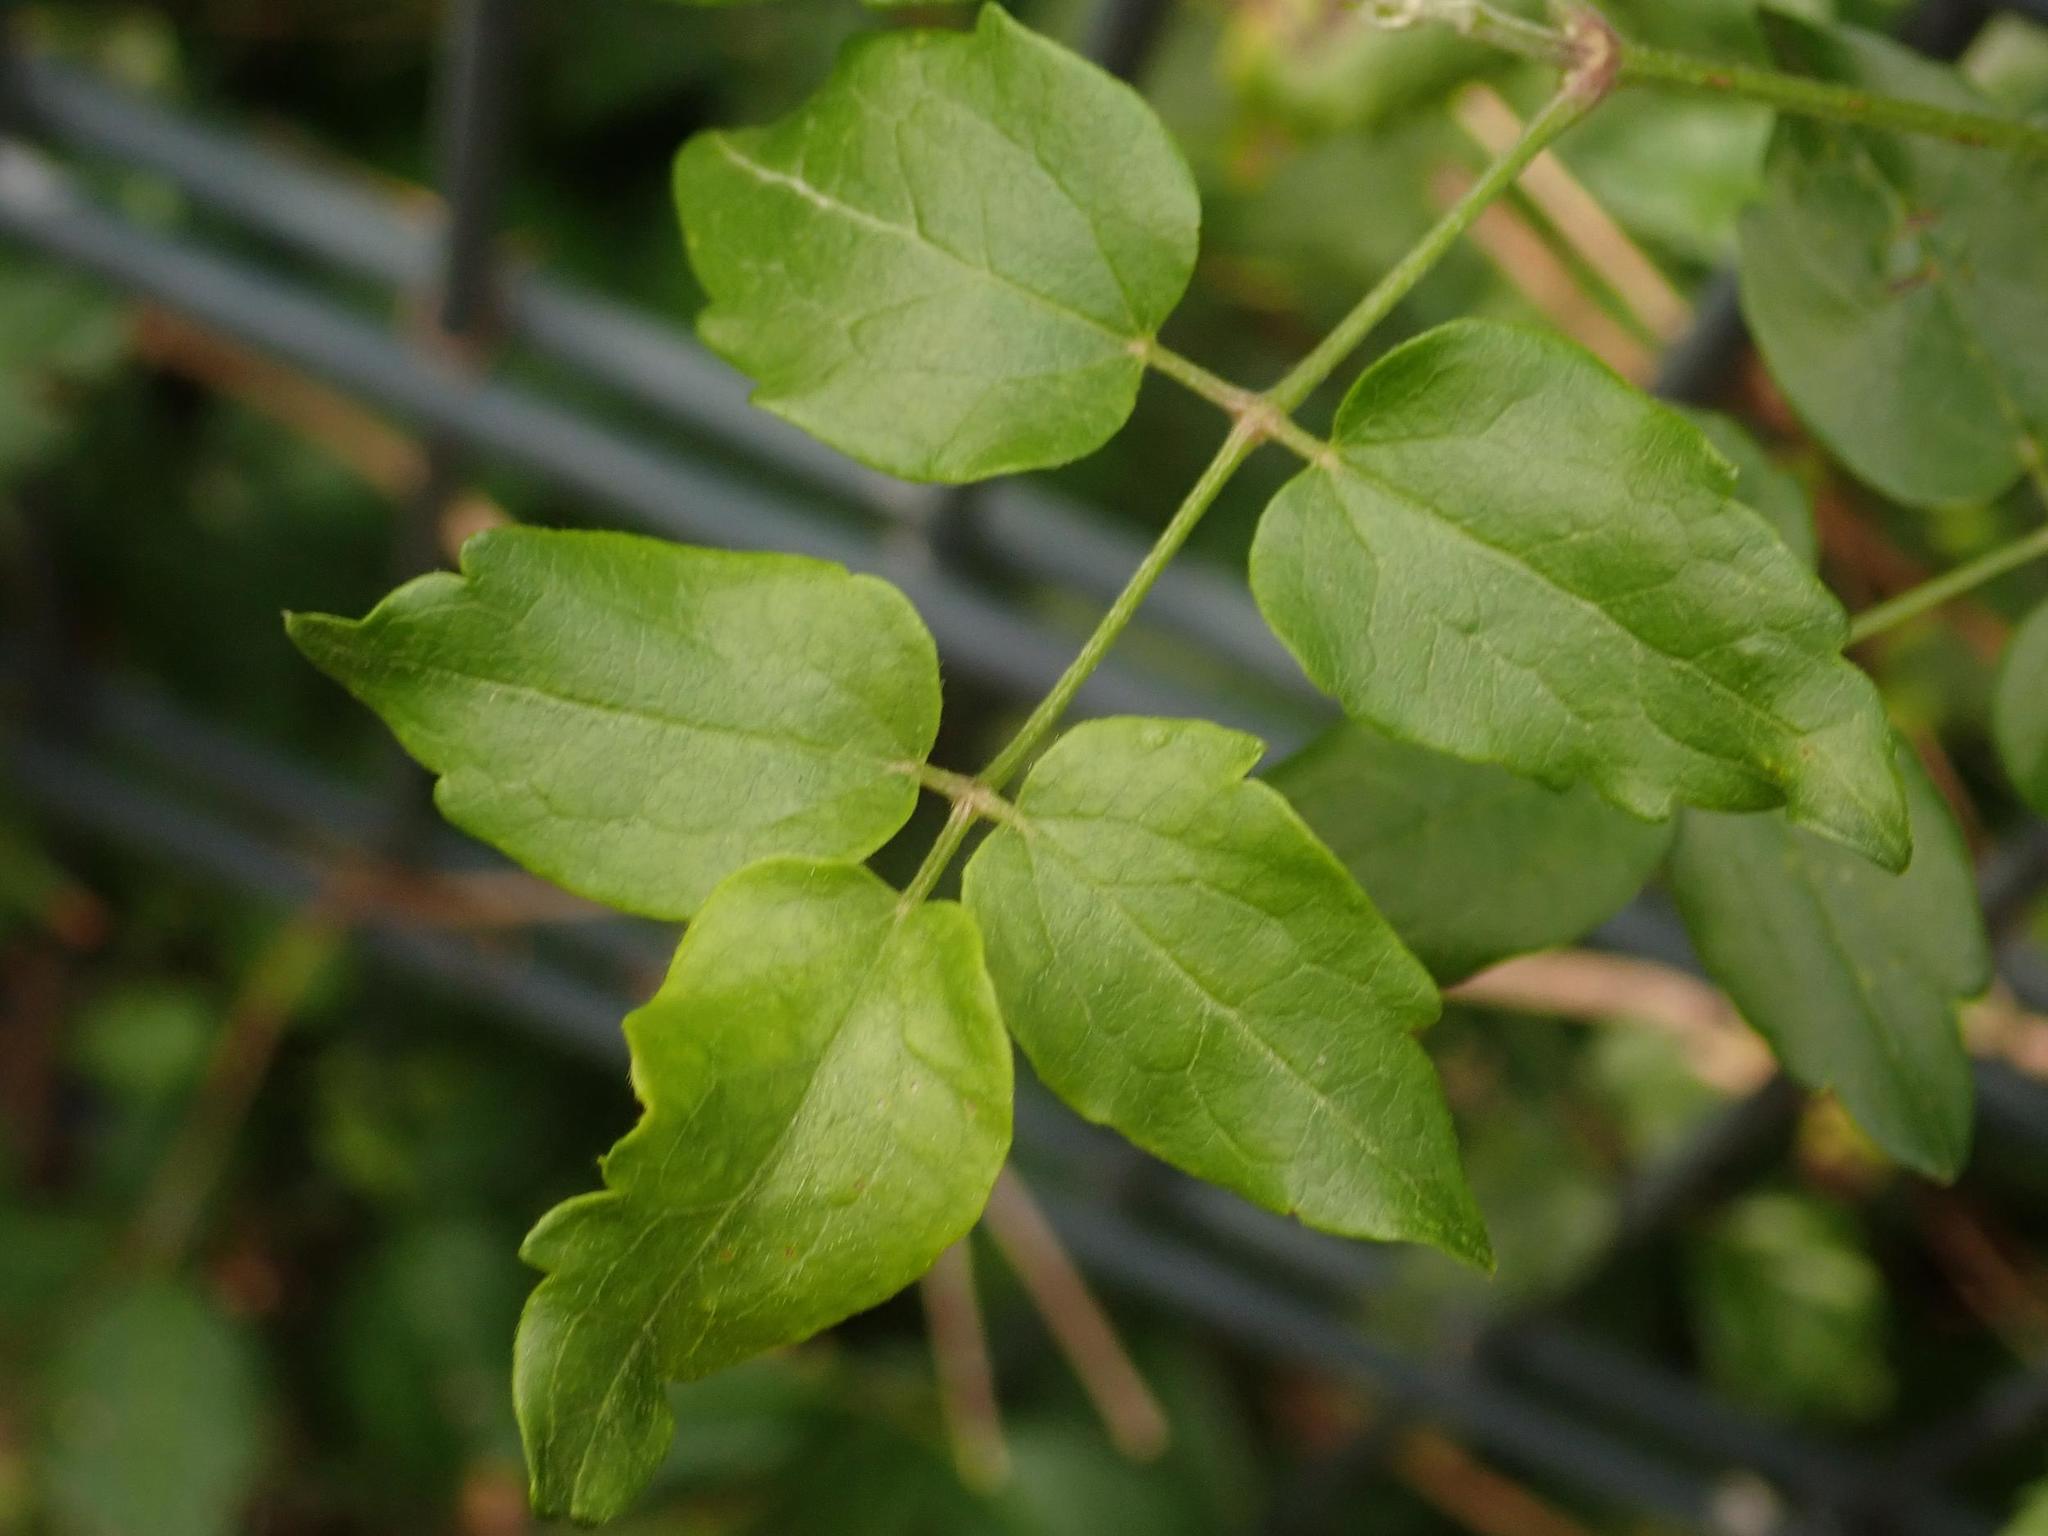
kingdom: Plantae
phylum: Tracheophyta
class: Magnoliopsida
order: Ranunculales
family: Ranunculaceae
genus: Clematis
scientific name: Clematis vitalba
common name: Evergreen clematis
